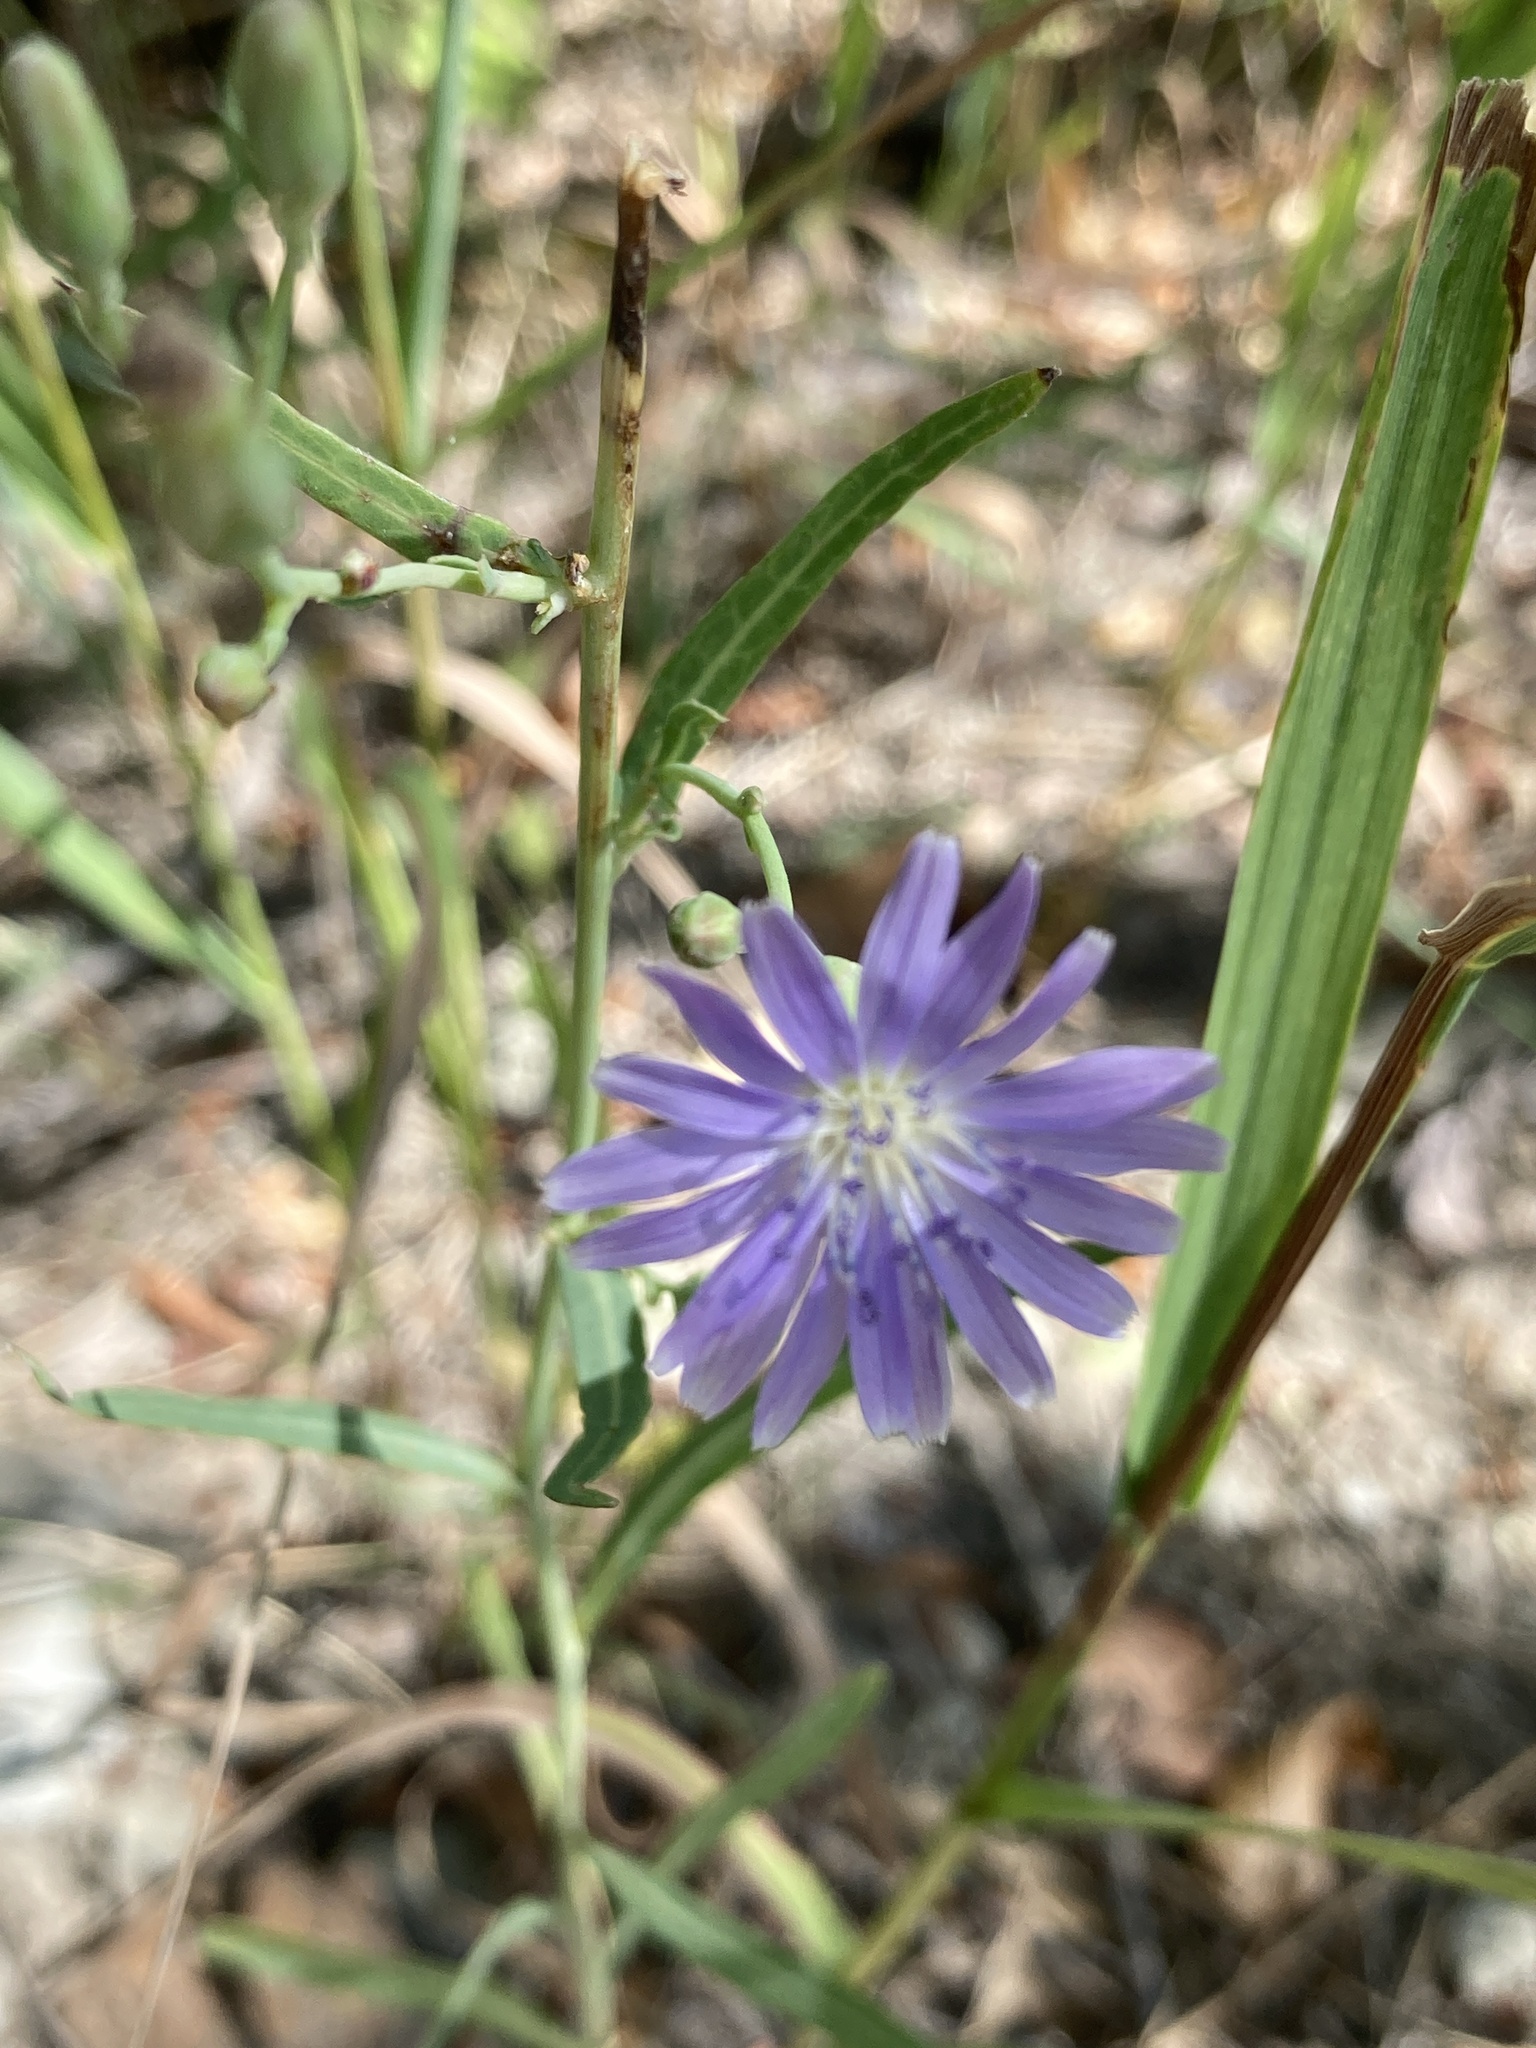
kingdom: Plantae
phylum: Tracheophyta
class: Magnoliopsida
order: Asterales
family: Asteraceae
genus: Lactuca
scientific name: Lactuca tatarica
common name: Blue lettuce
